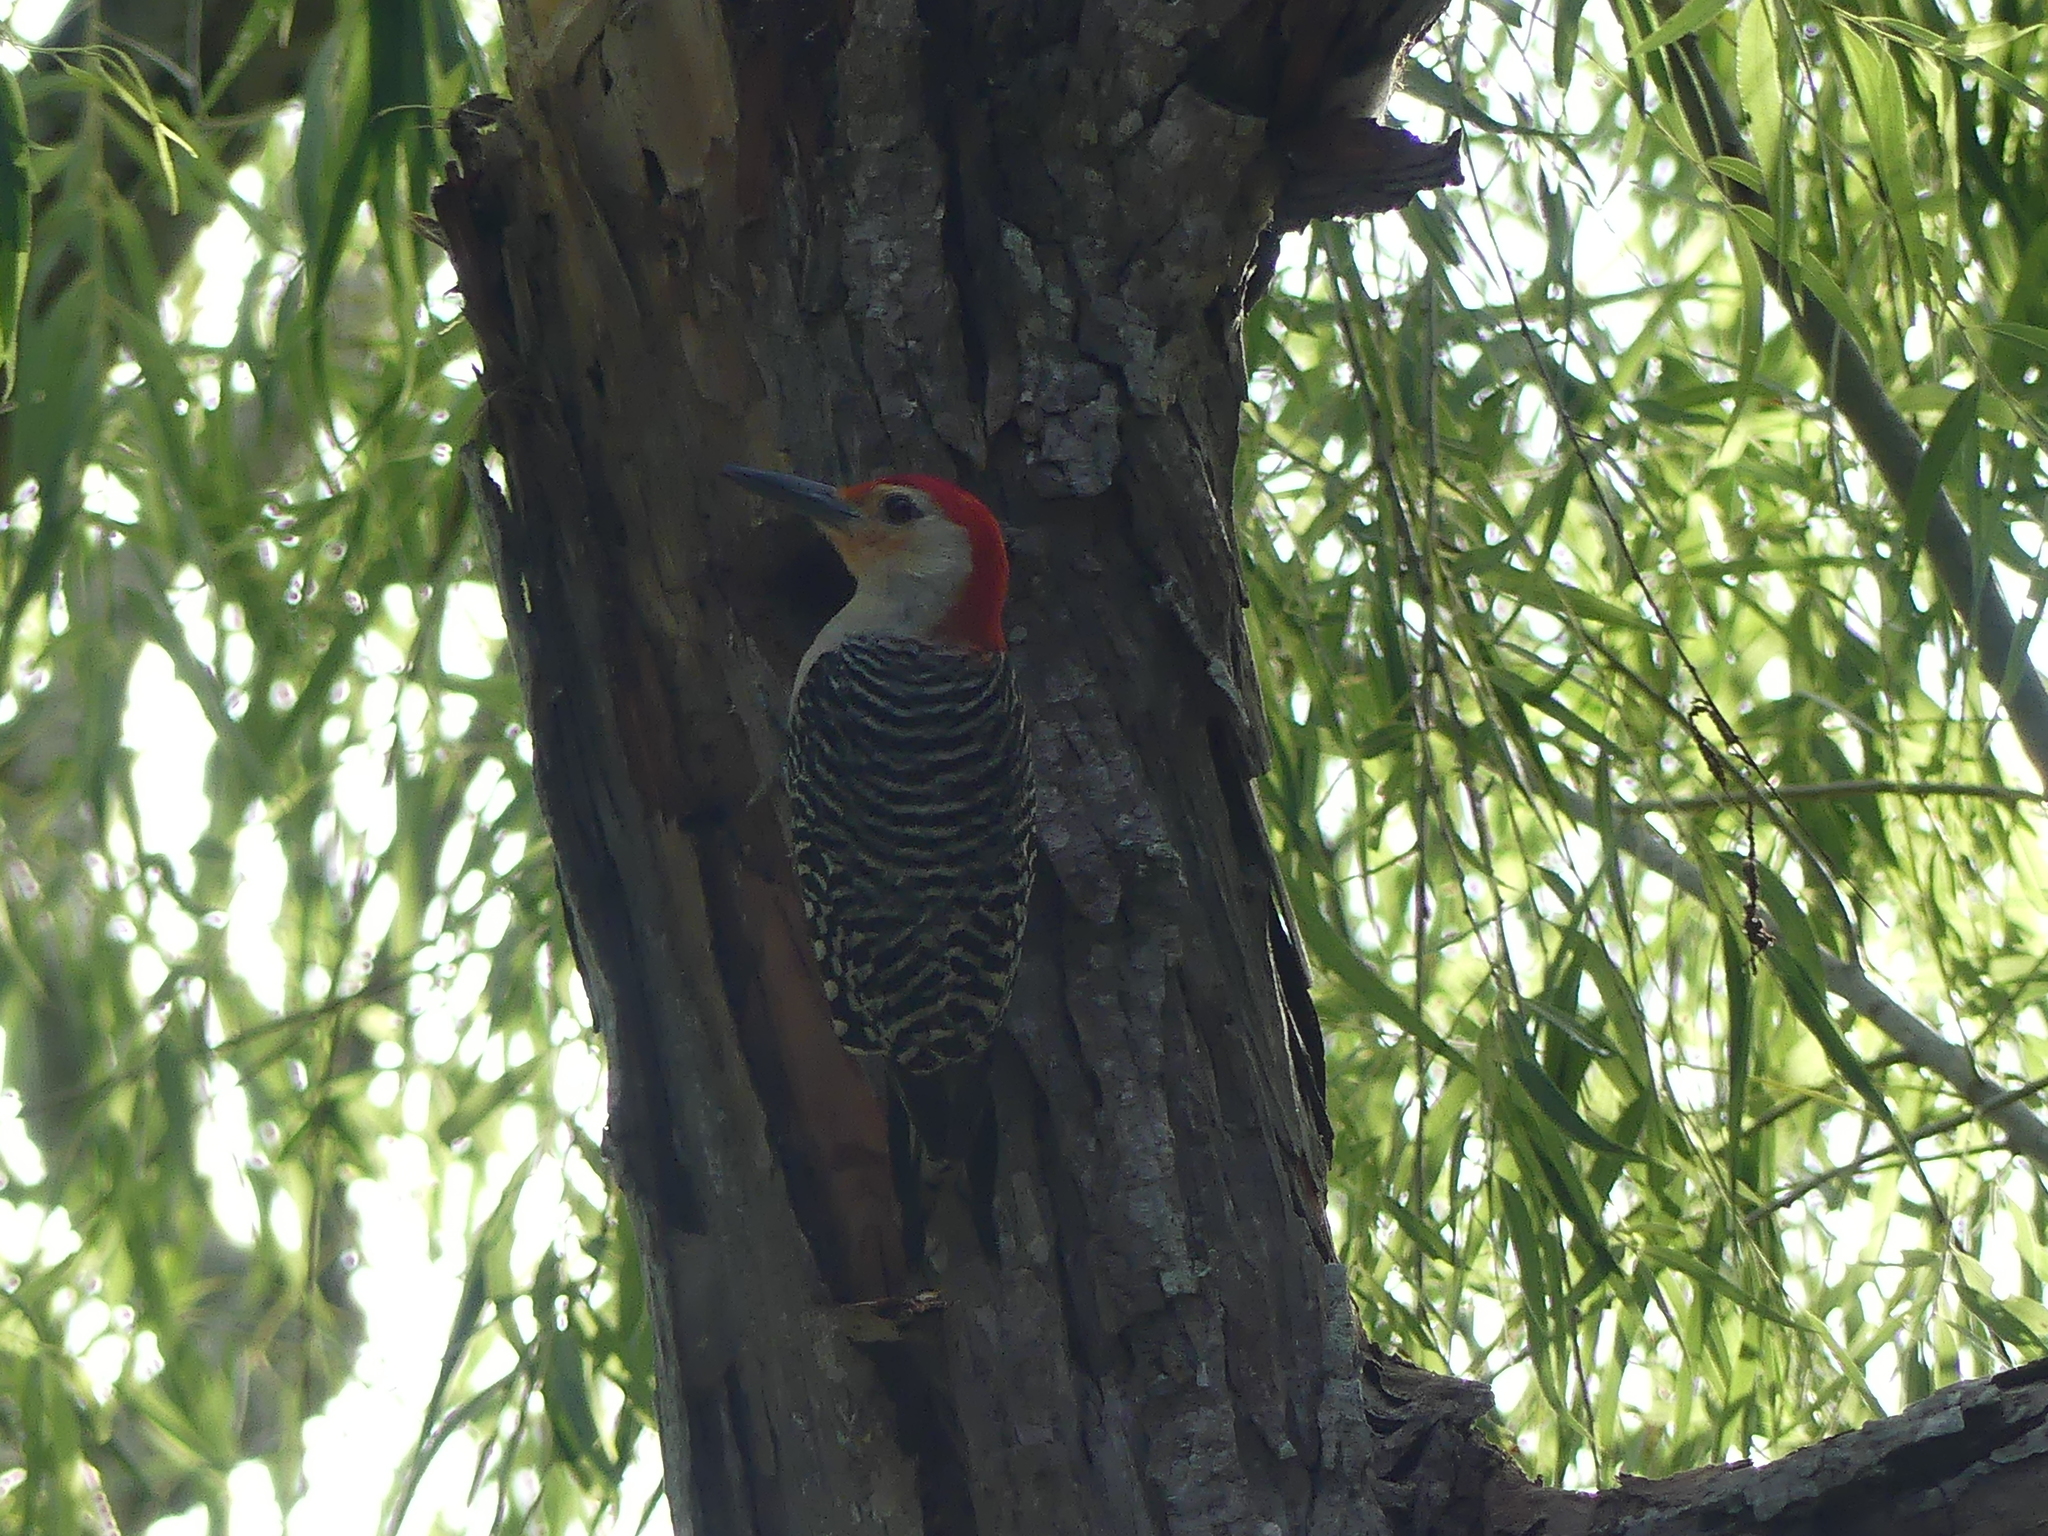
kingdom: Animalia
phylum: Chordata
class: Aves
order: Piciformes
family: Picidae
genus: Melanerpes
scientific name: Melanerpes carolinus
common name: Red-bellied woodpecker
